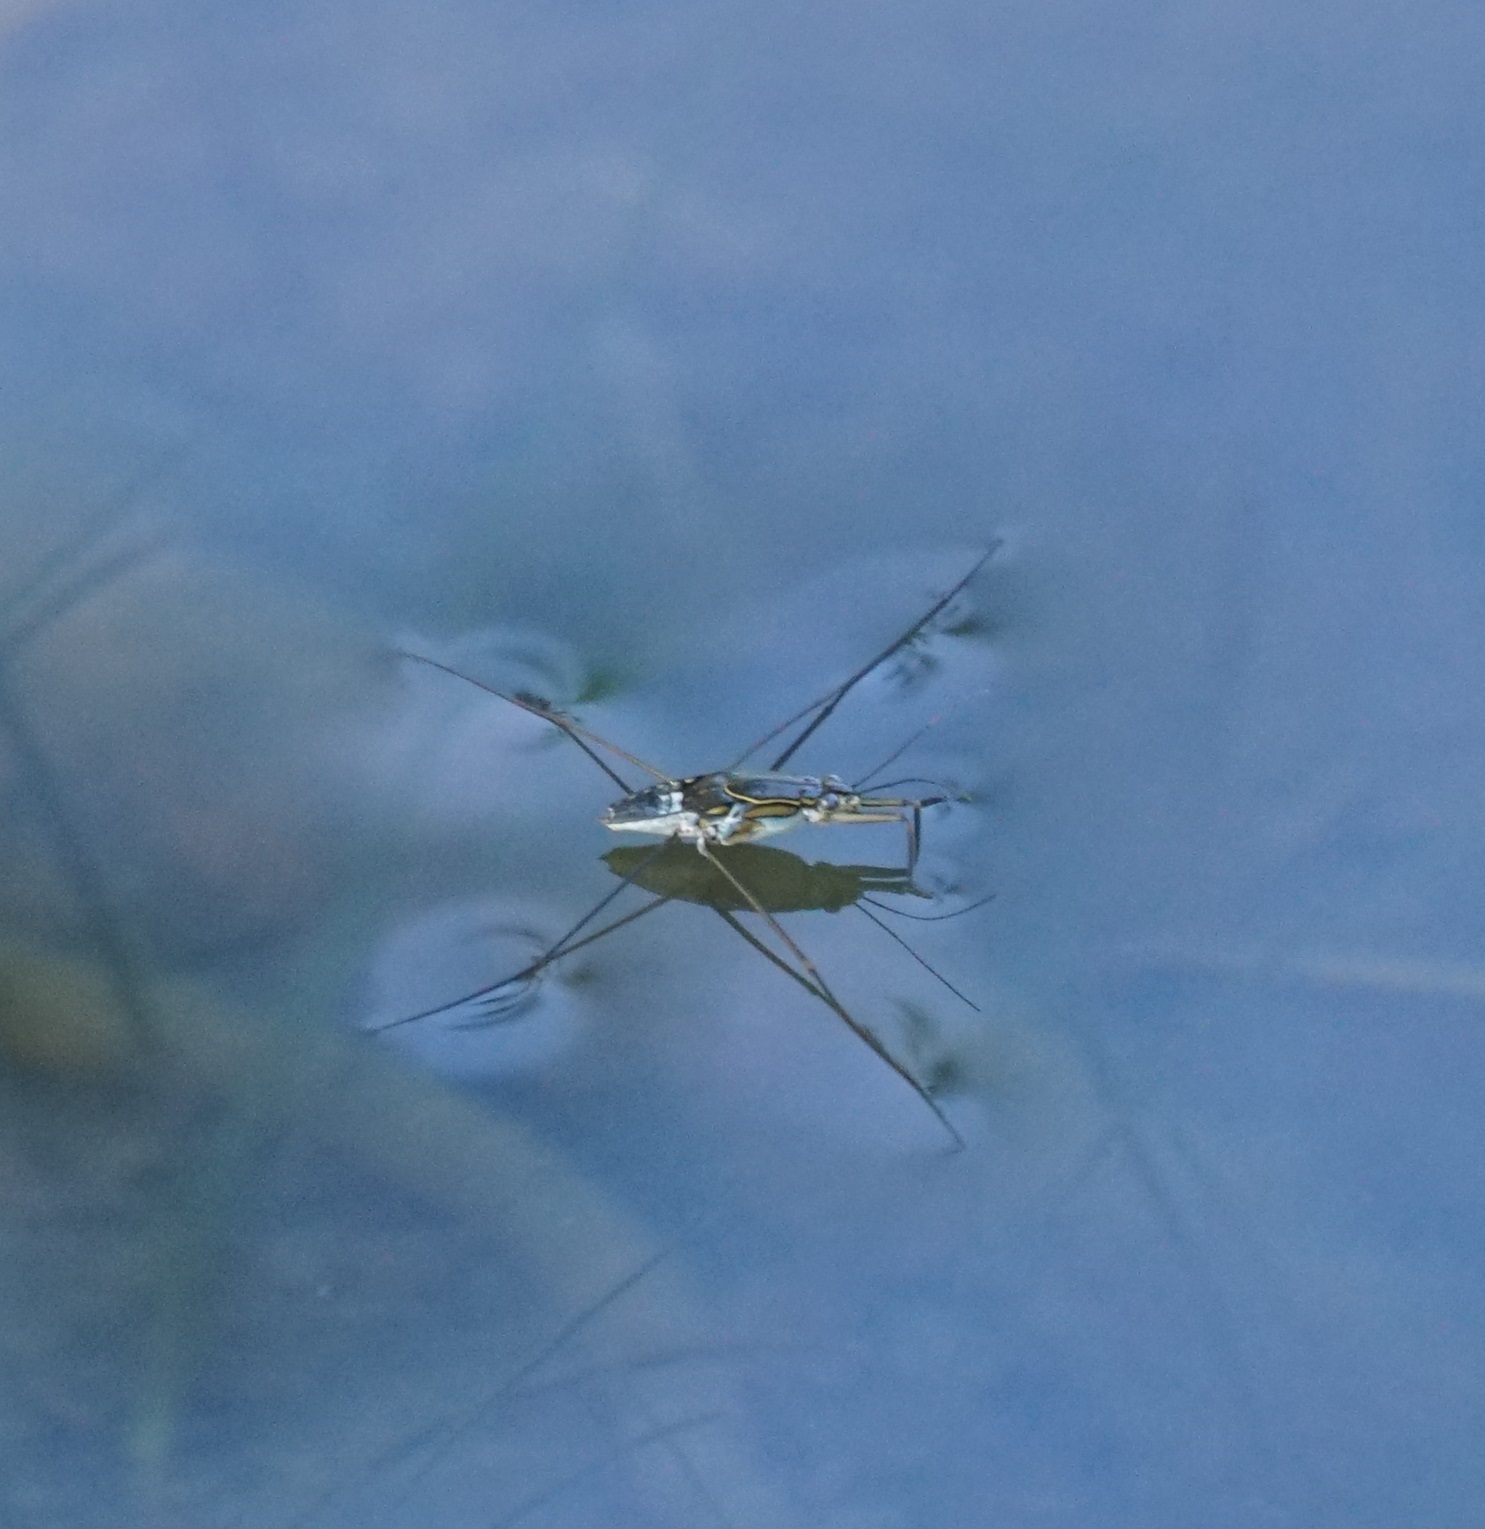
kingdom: Animalia
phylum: Arthropoda
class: Insecta
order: Hemiptera
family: Gerridae
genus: Limnogonus
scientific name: Limnogonus fossarum
